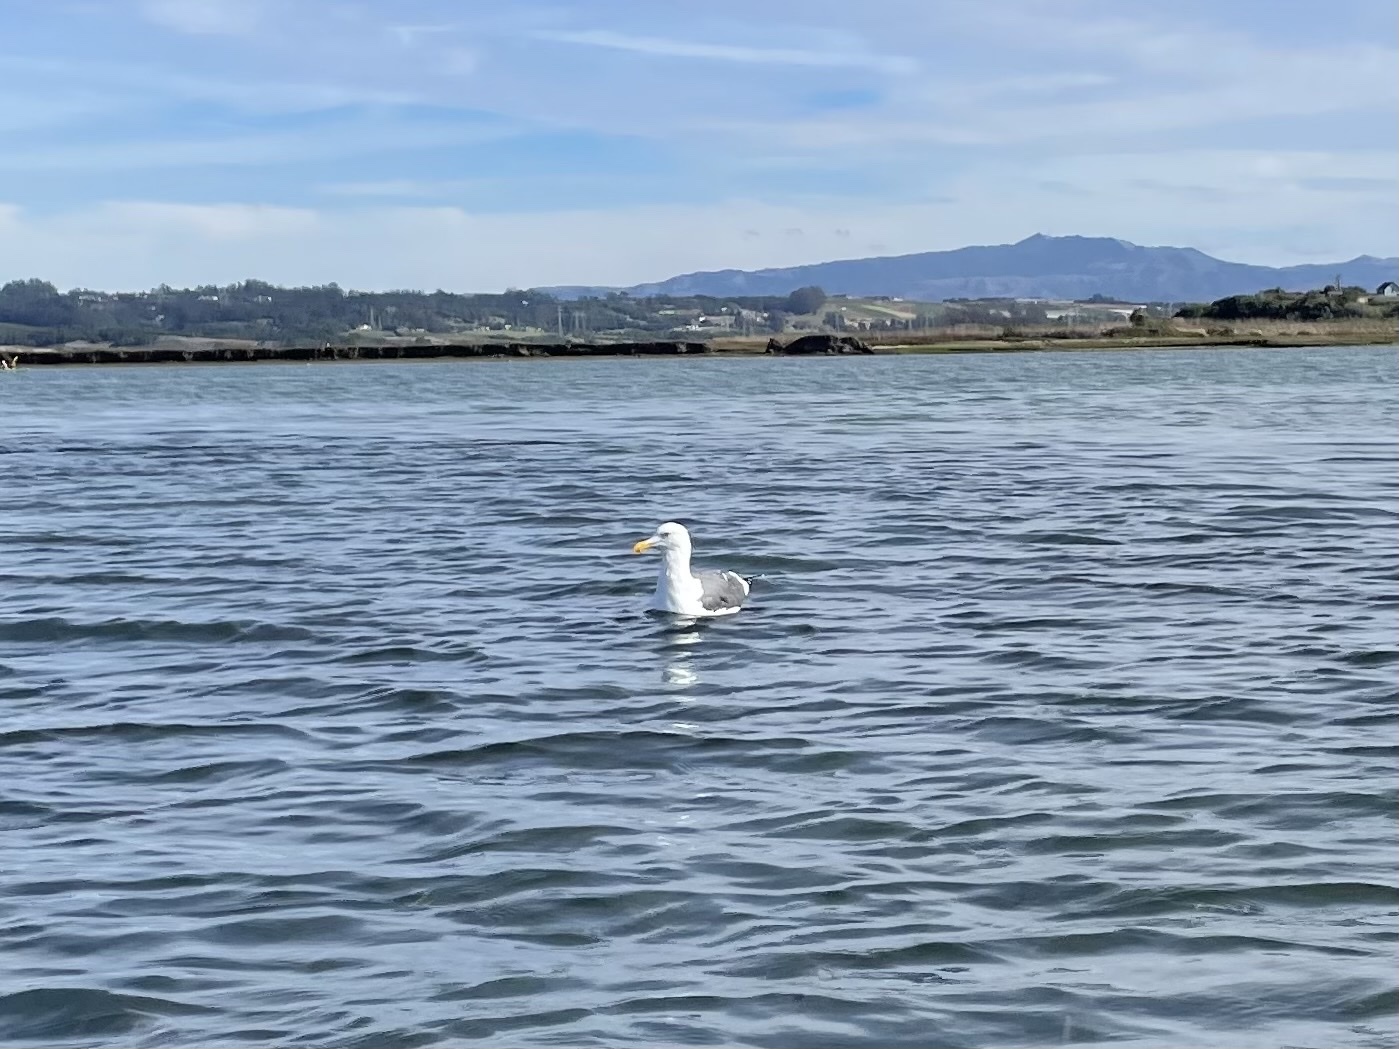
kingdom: Animalia
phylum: Chordata
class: Aves
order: Charadriiformes
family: Laridae
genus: Larus
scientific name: Larus occidentalis
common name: Western gull
